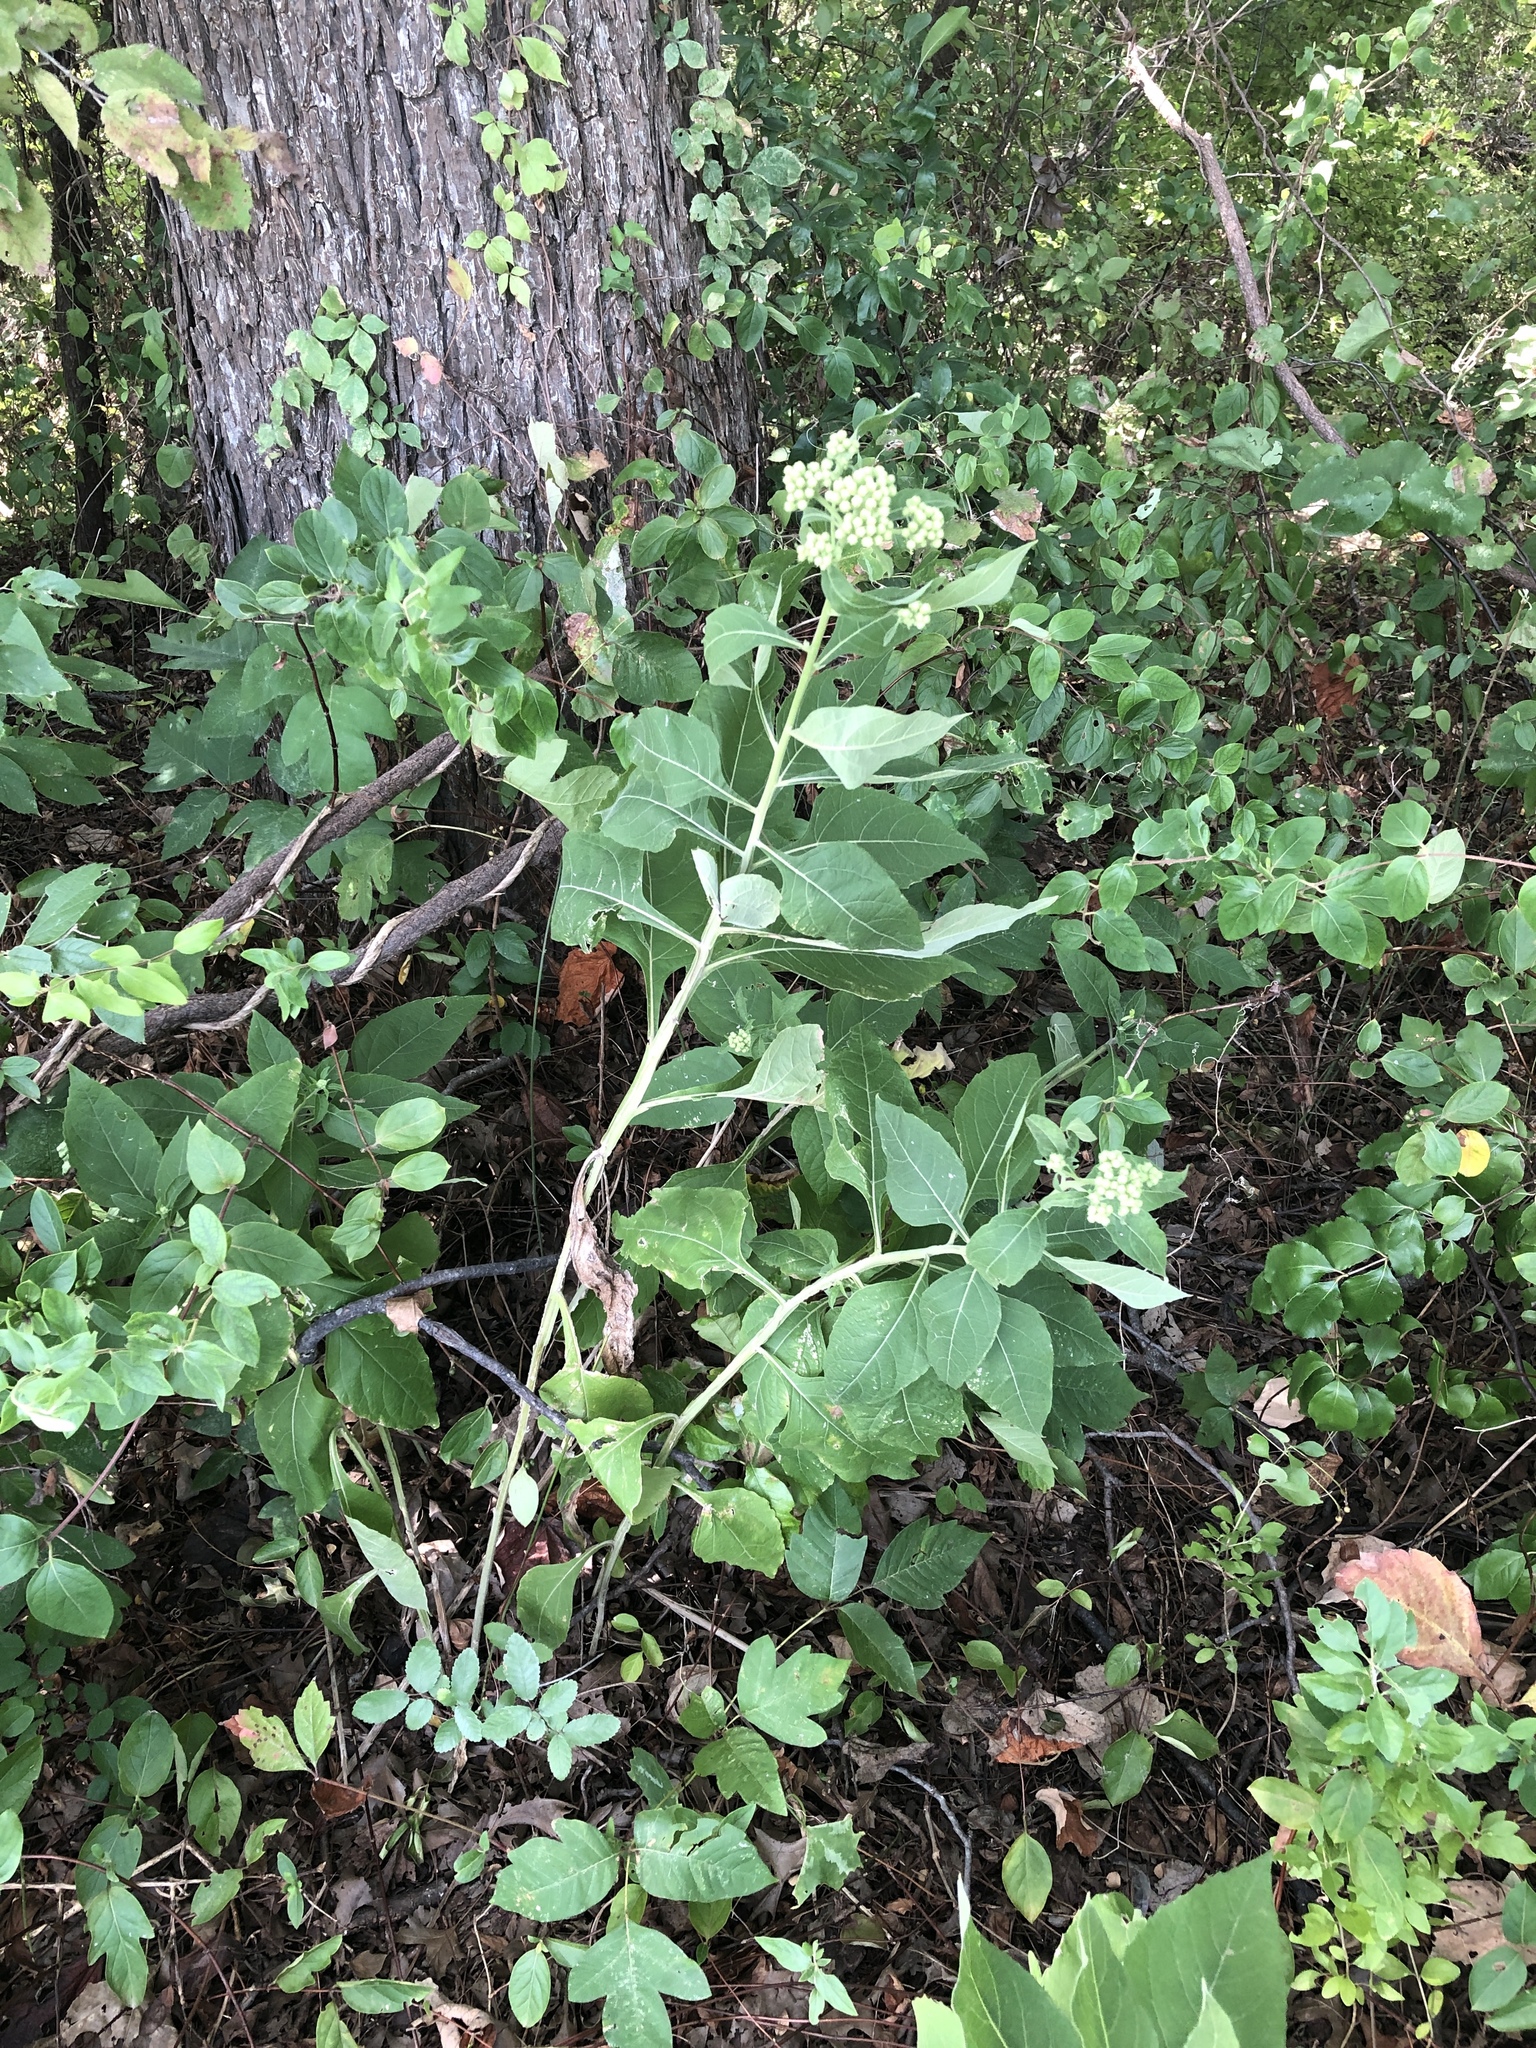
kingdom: Plantae
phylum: Tracheophyta
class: Magnoliopsida
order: Asterales
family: Asteraceae
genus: Verbesina
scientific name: Verbesina virginica
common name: Frostweed
